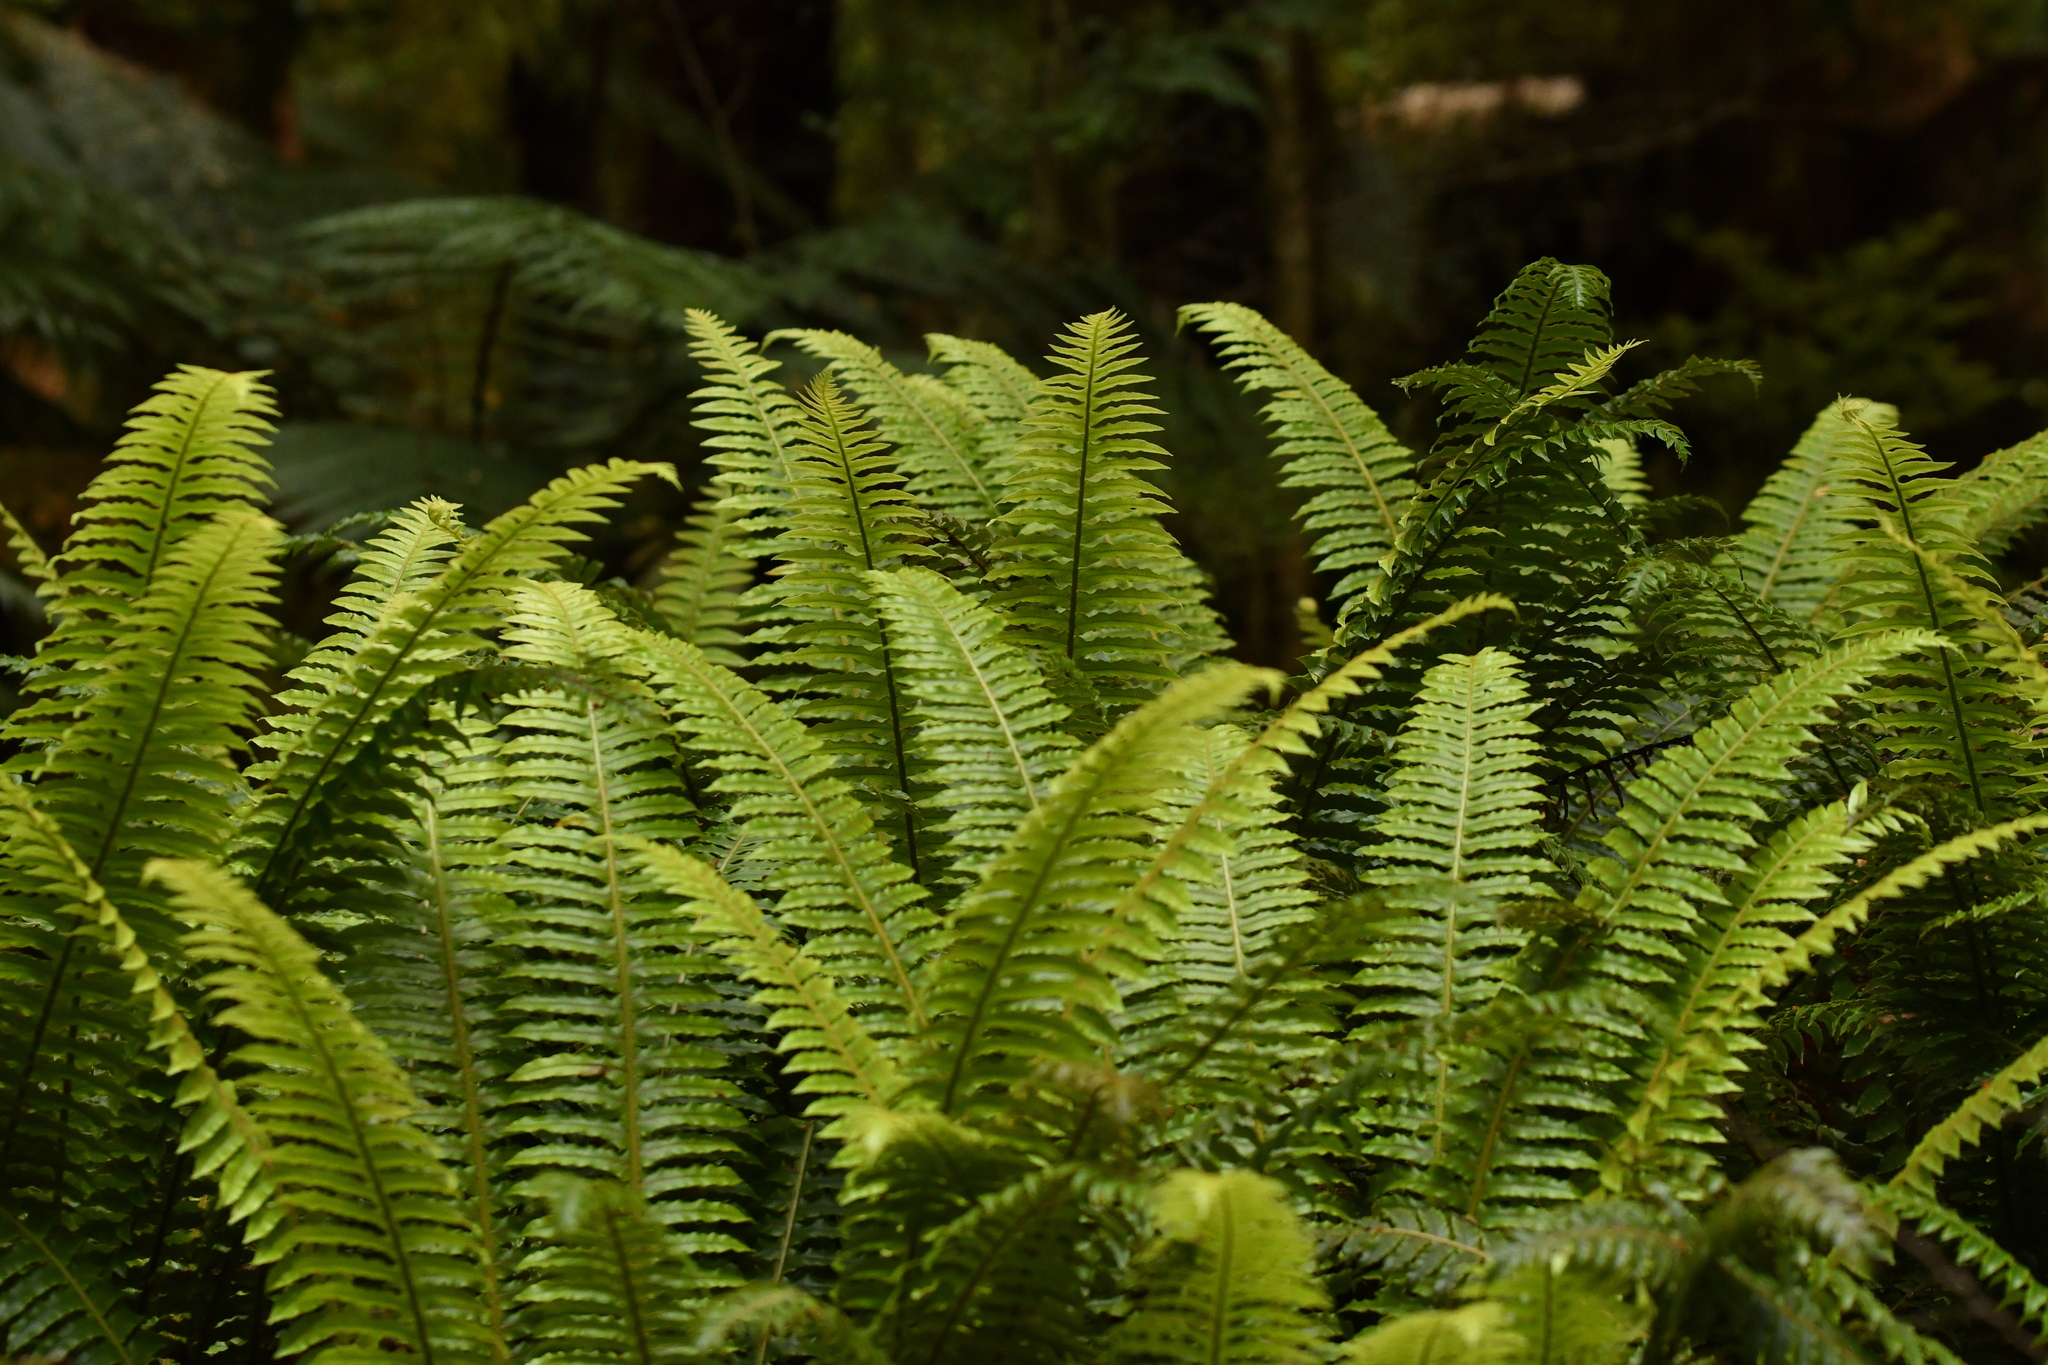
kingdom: Plantae
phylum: Tracheophyta
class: Polypodiopsida
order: Polypodiales
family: Blechnaceae
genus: Lomaria
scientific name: Lomaria discolor
